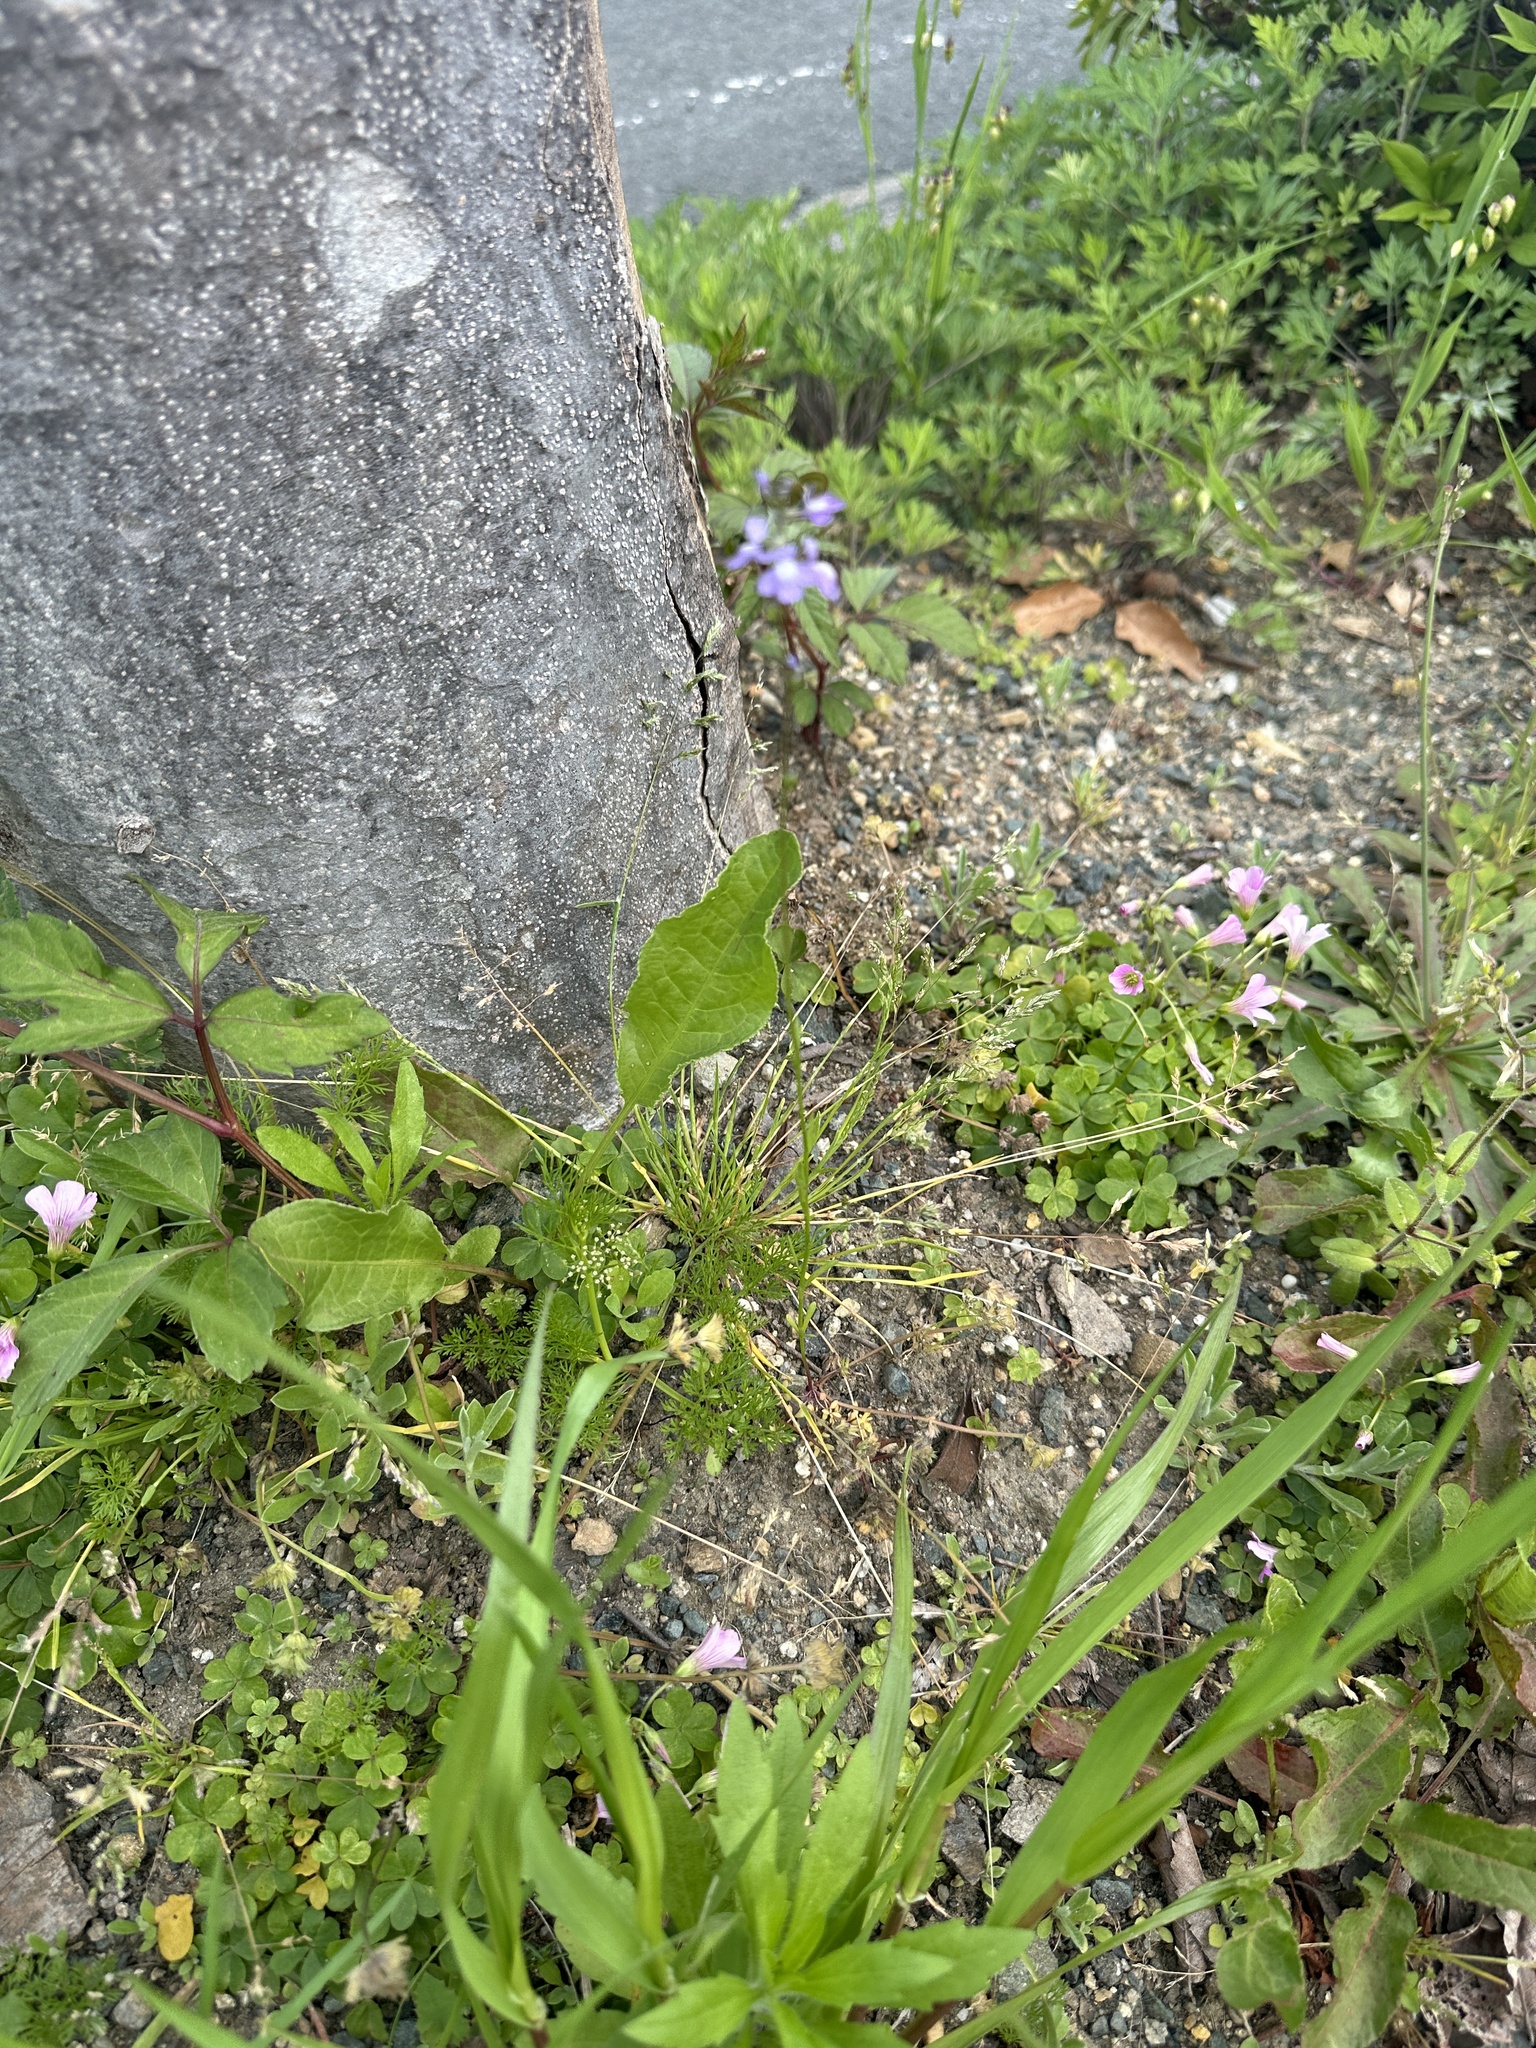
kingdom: Plantae
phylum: Tracheophyta
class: Magnoliopsida
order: Lamiales
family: Plantaginaceae
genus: Nuttallanthus
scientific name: Nuttallanthus canadensis
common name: Blue toadflax
